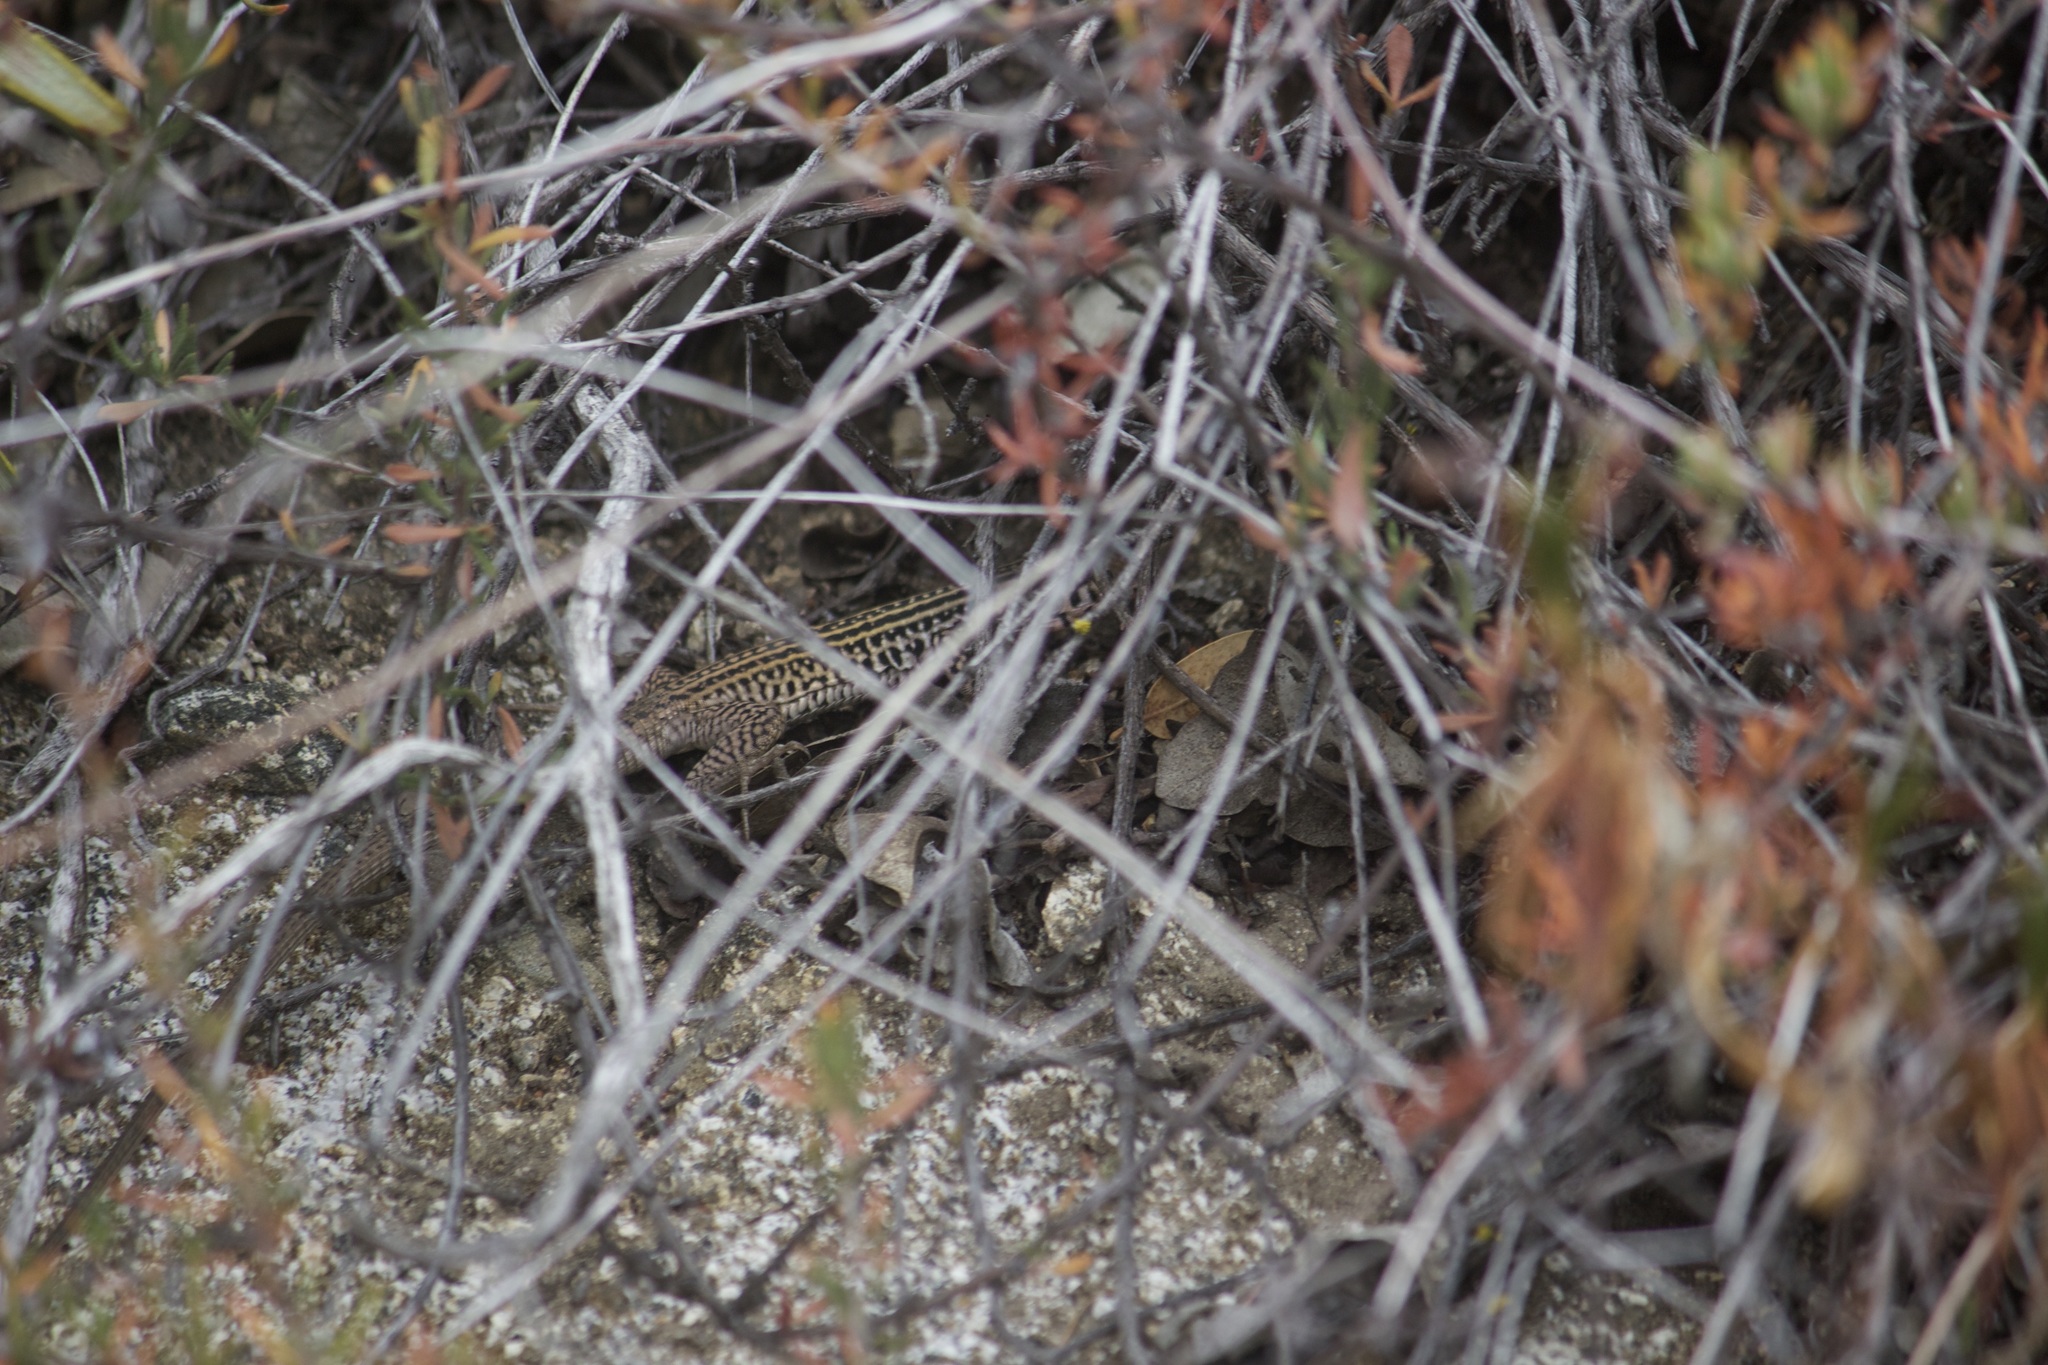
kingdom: Animalia
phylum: Chordata
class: Squamata
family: Teiidae
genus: Aspidoscelis
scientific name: Aspidoscelis tigris
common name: Tiger whiptail
